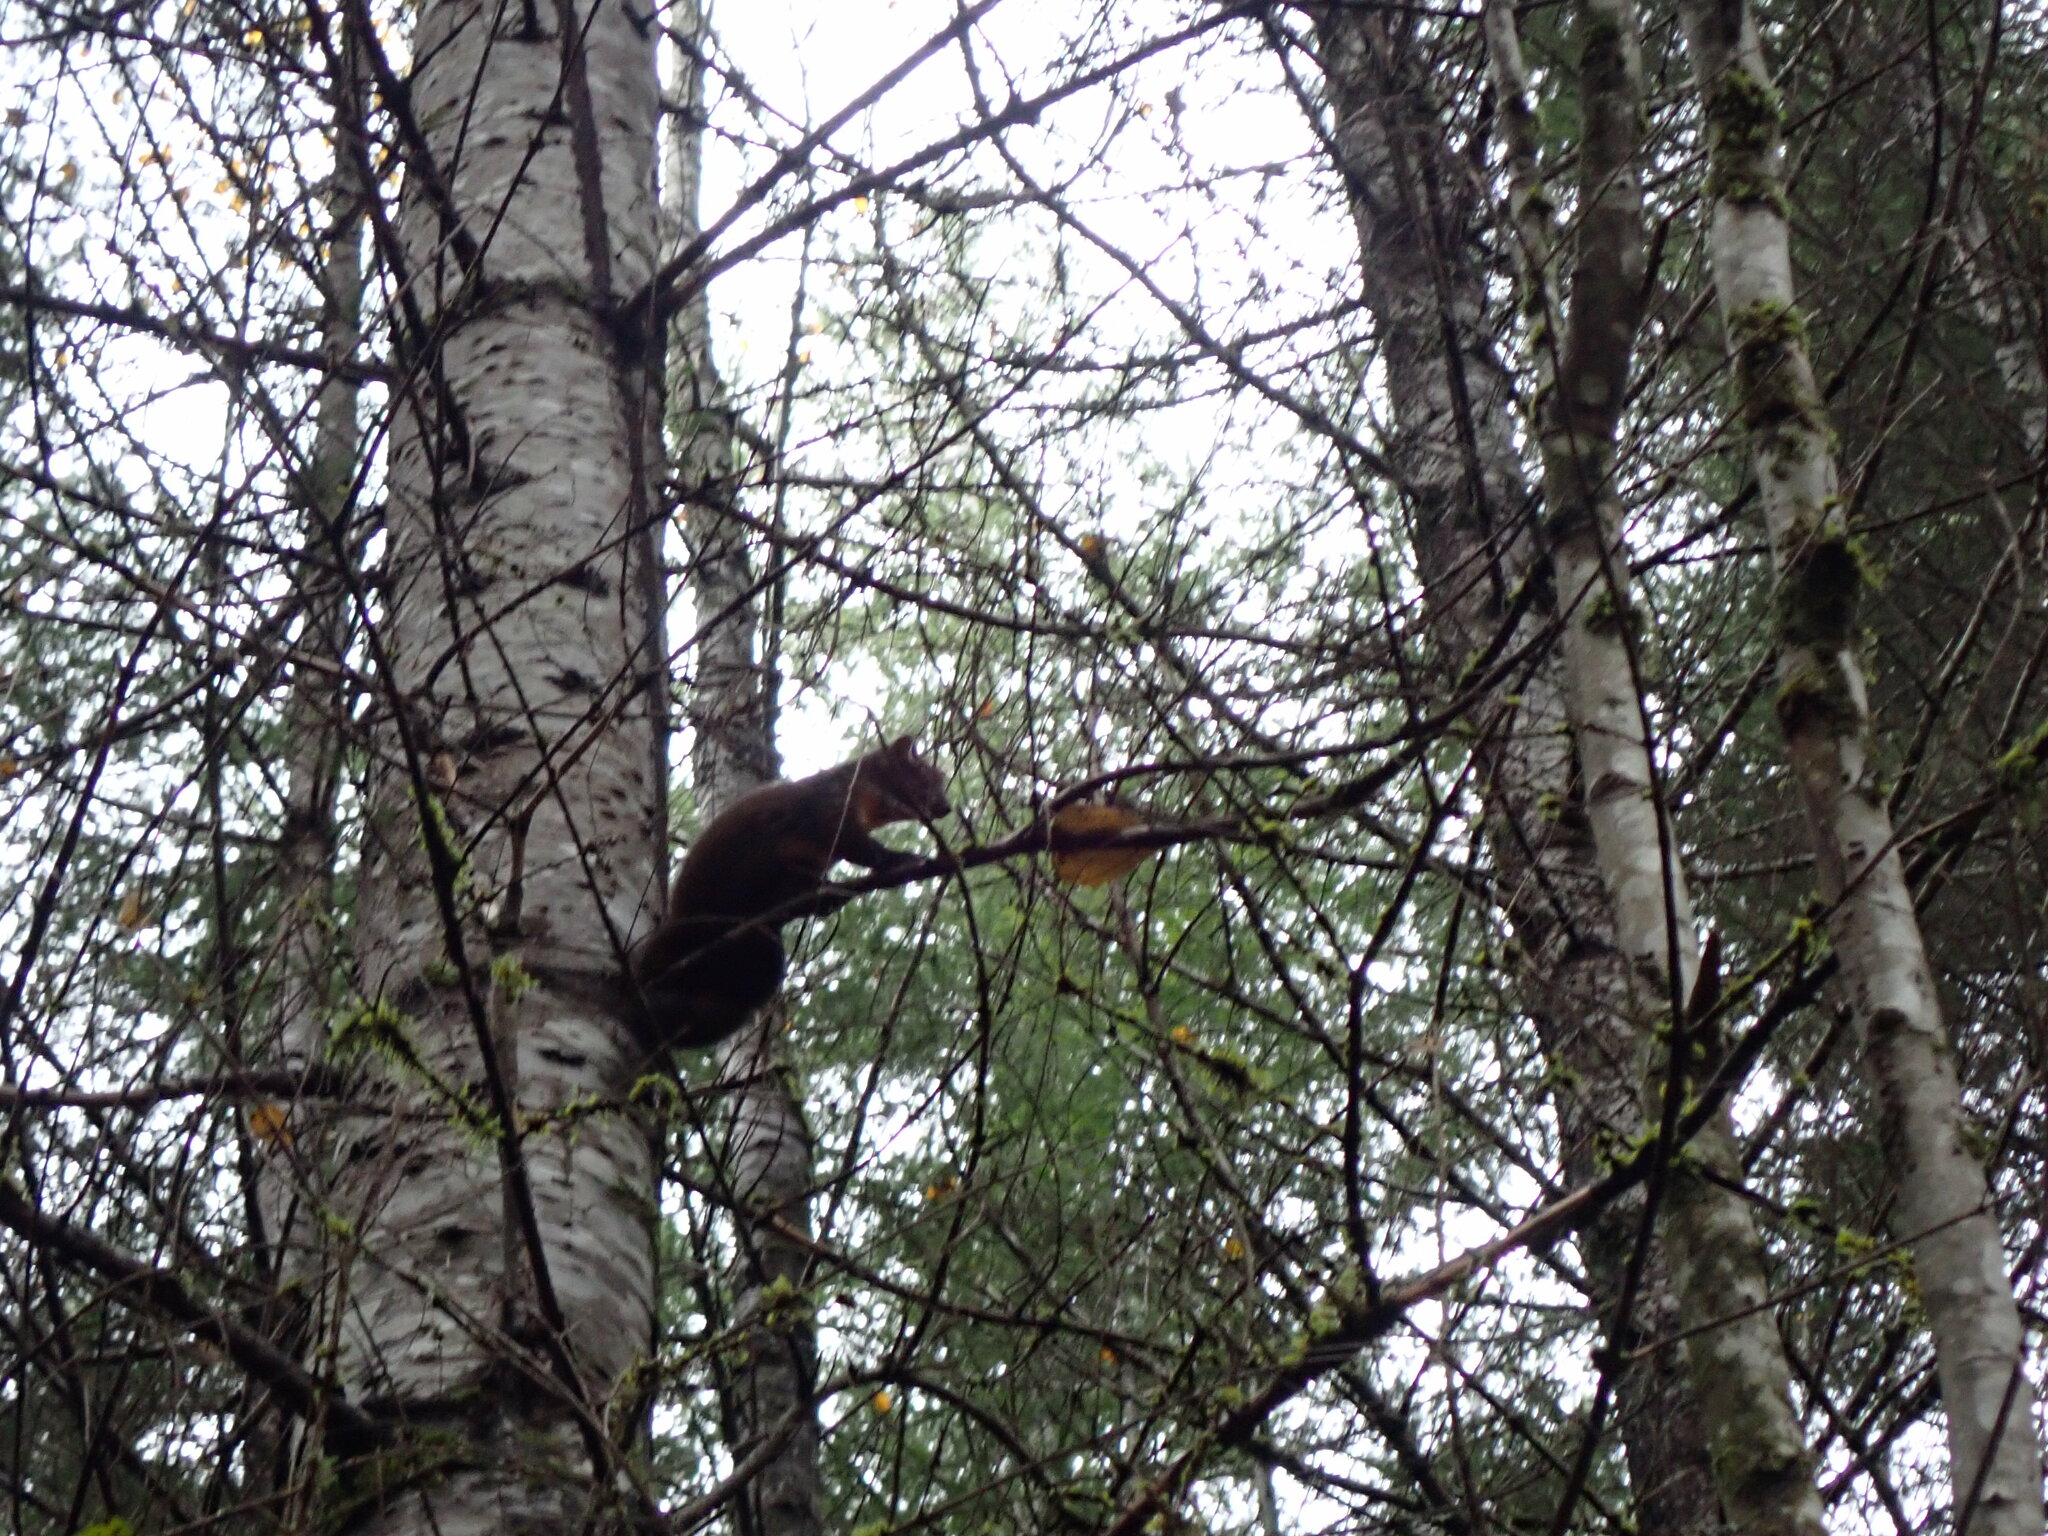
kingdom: Animalia
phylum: Chordata
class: Mammalia
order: Carnivora
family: Mustelidae
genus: Martes
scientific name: Martes caurina
